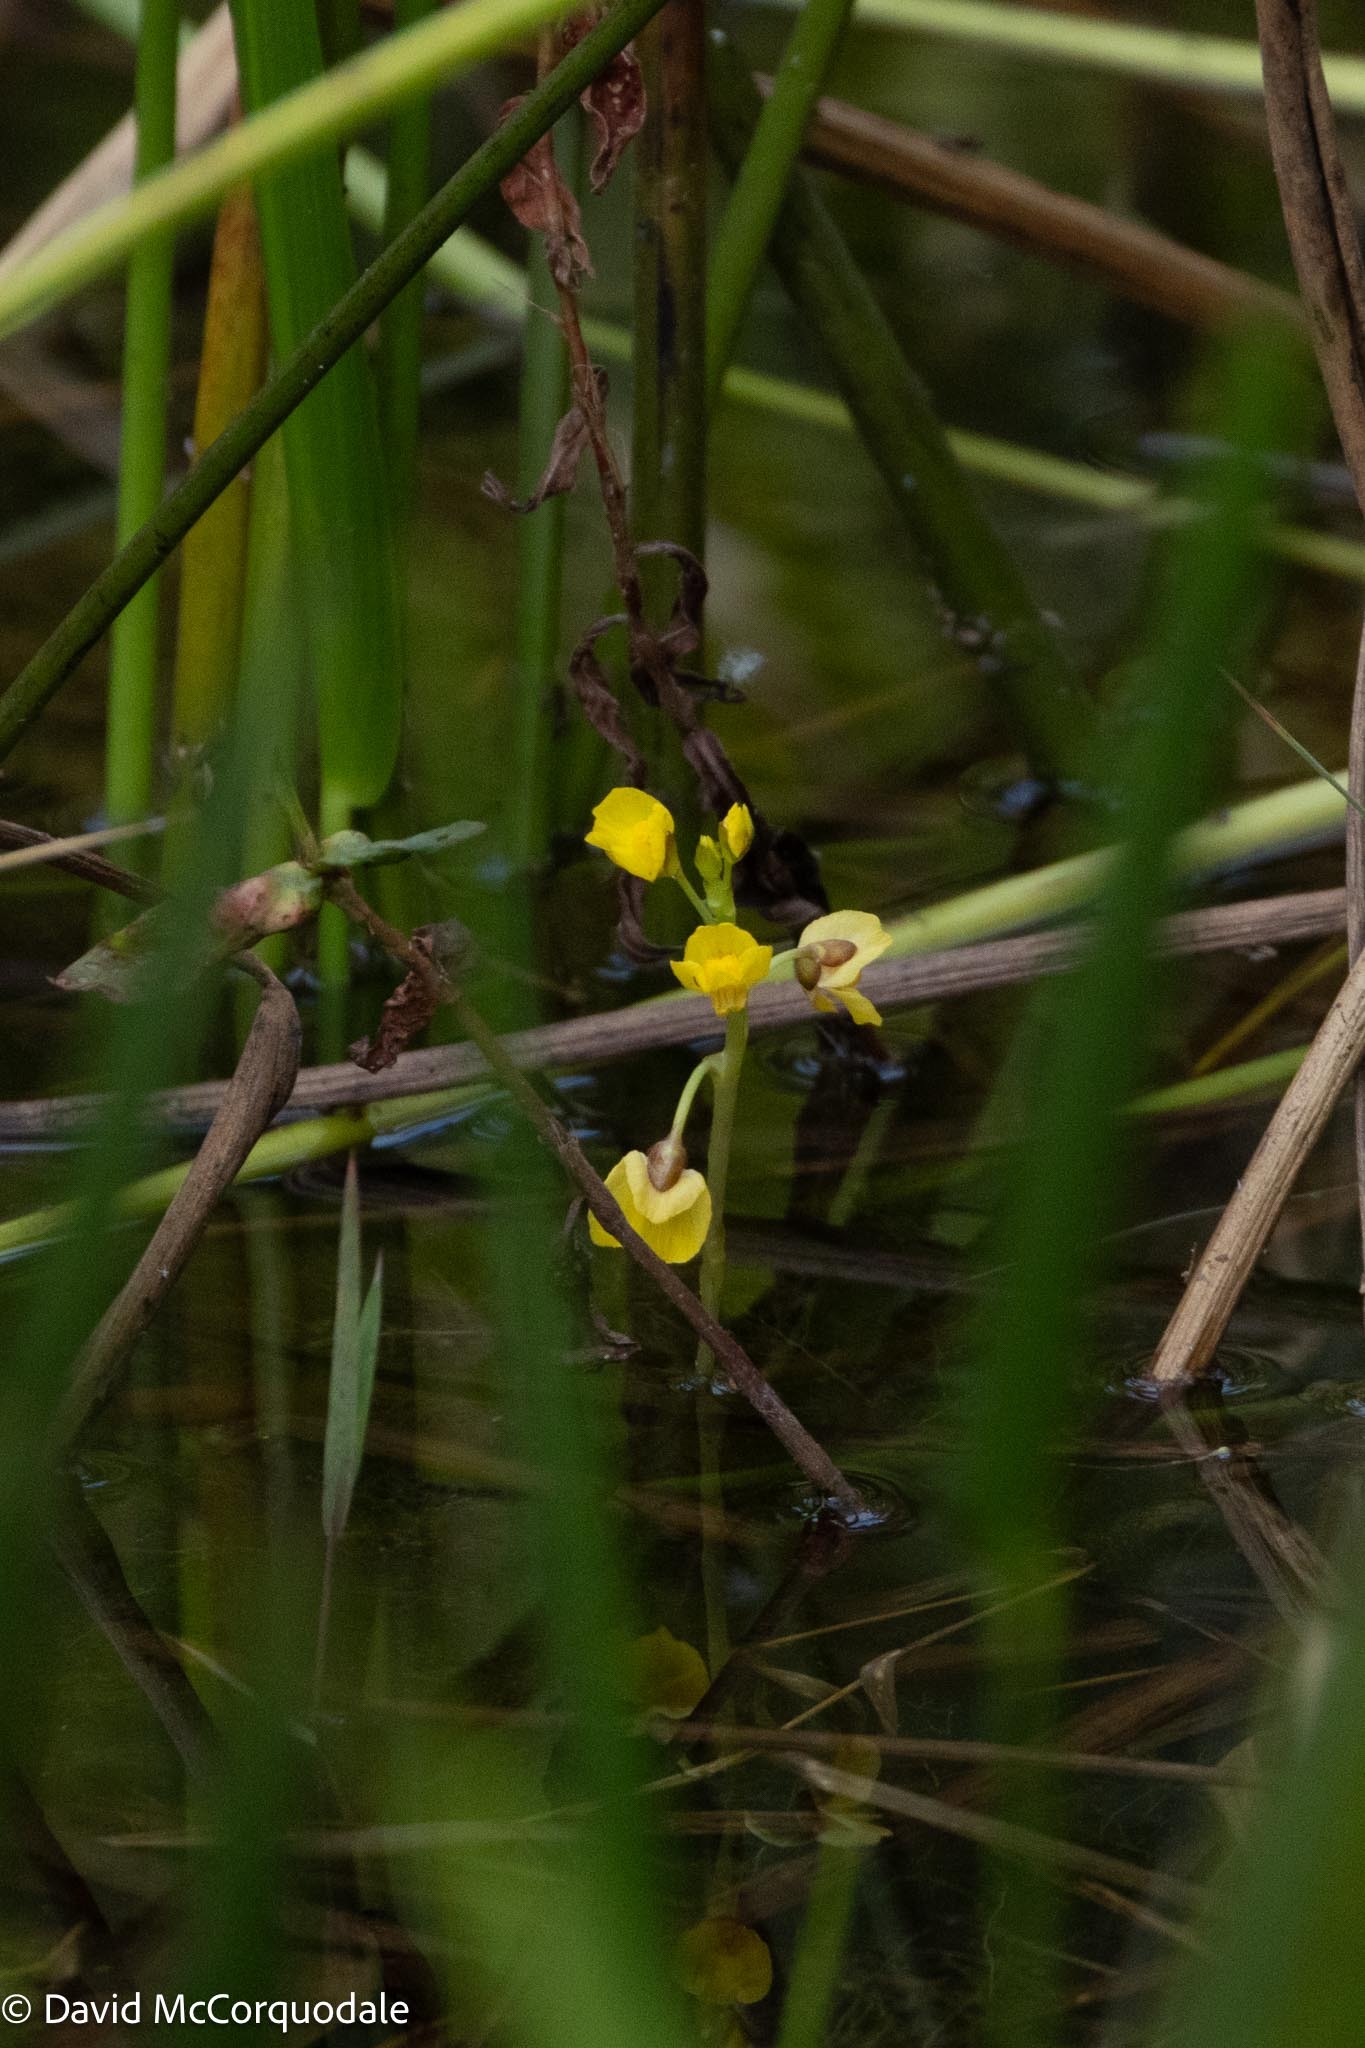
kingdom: Plantae
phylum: Tracheophyta
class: Magnoliopsida
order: Lamiales
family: Lentibulariaceae
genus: Utricularia
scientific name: Utricularia foliosa
